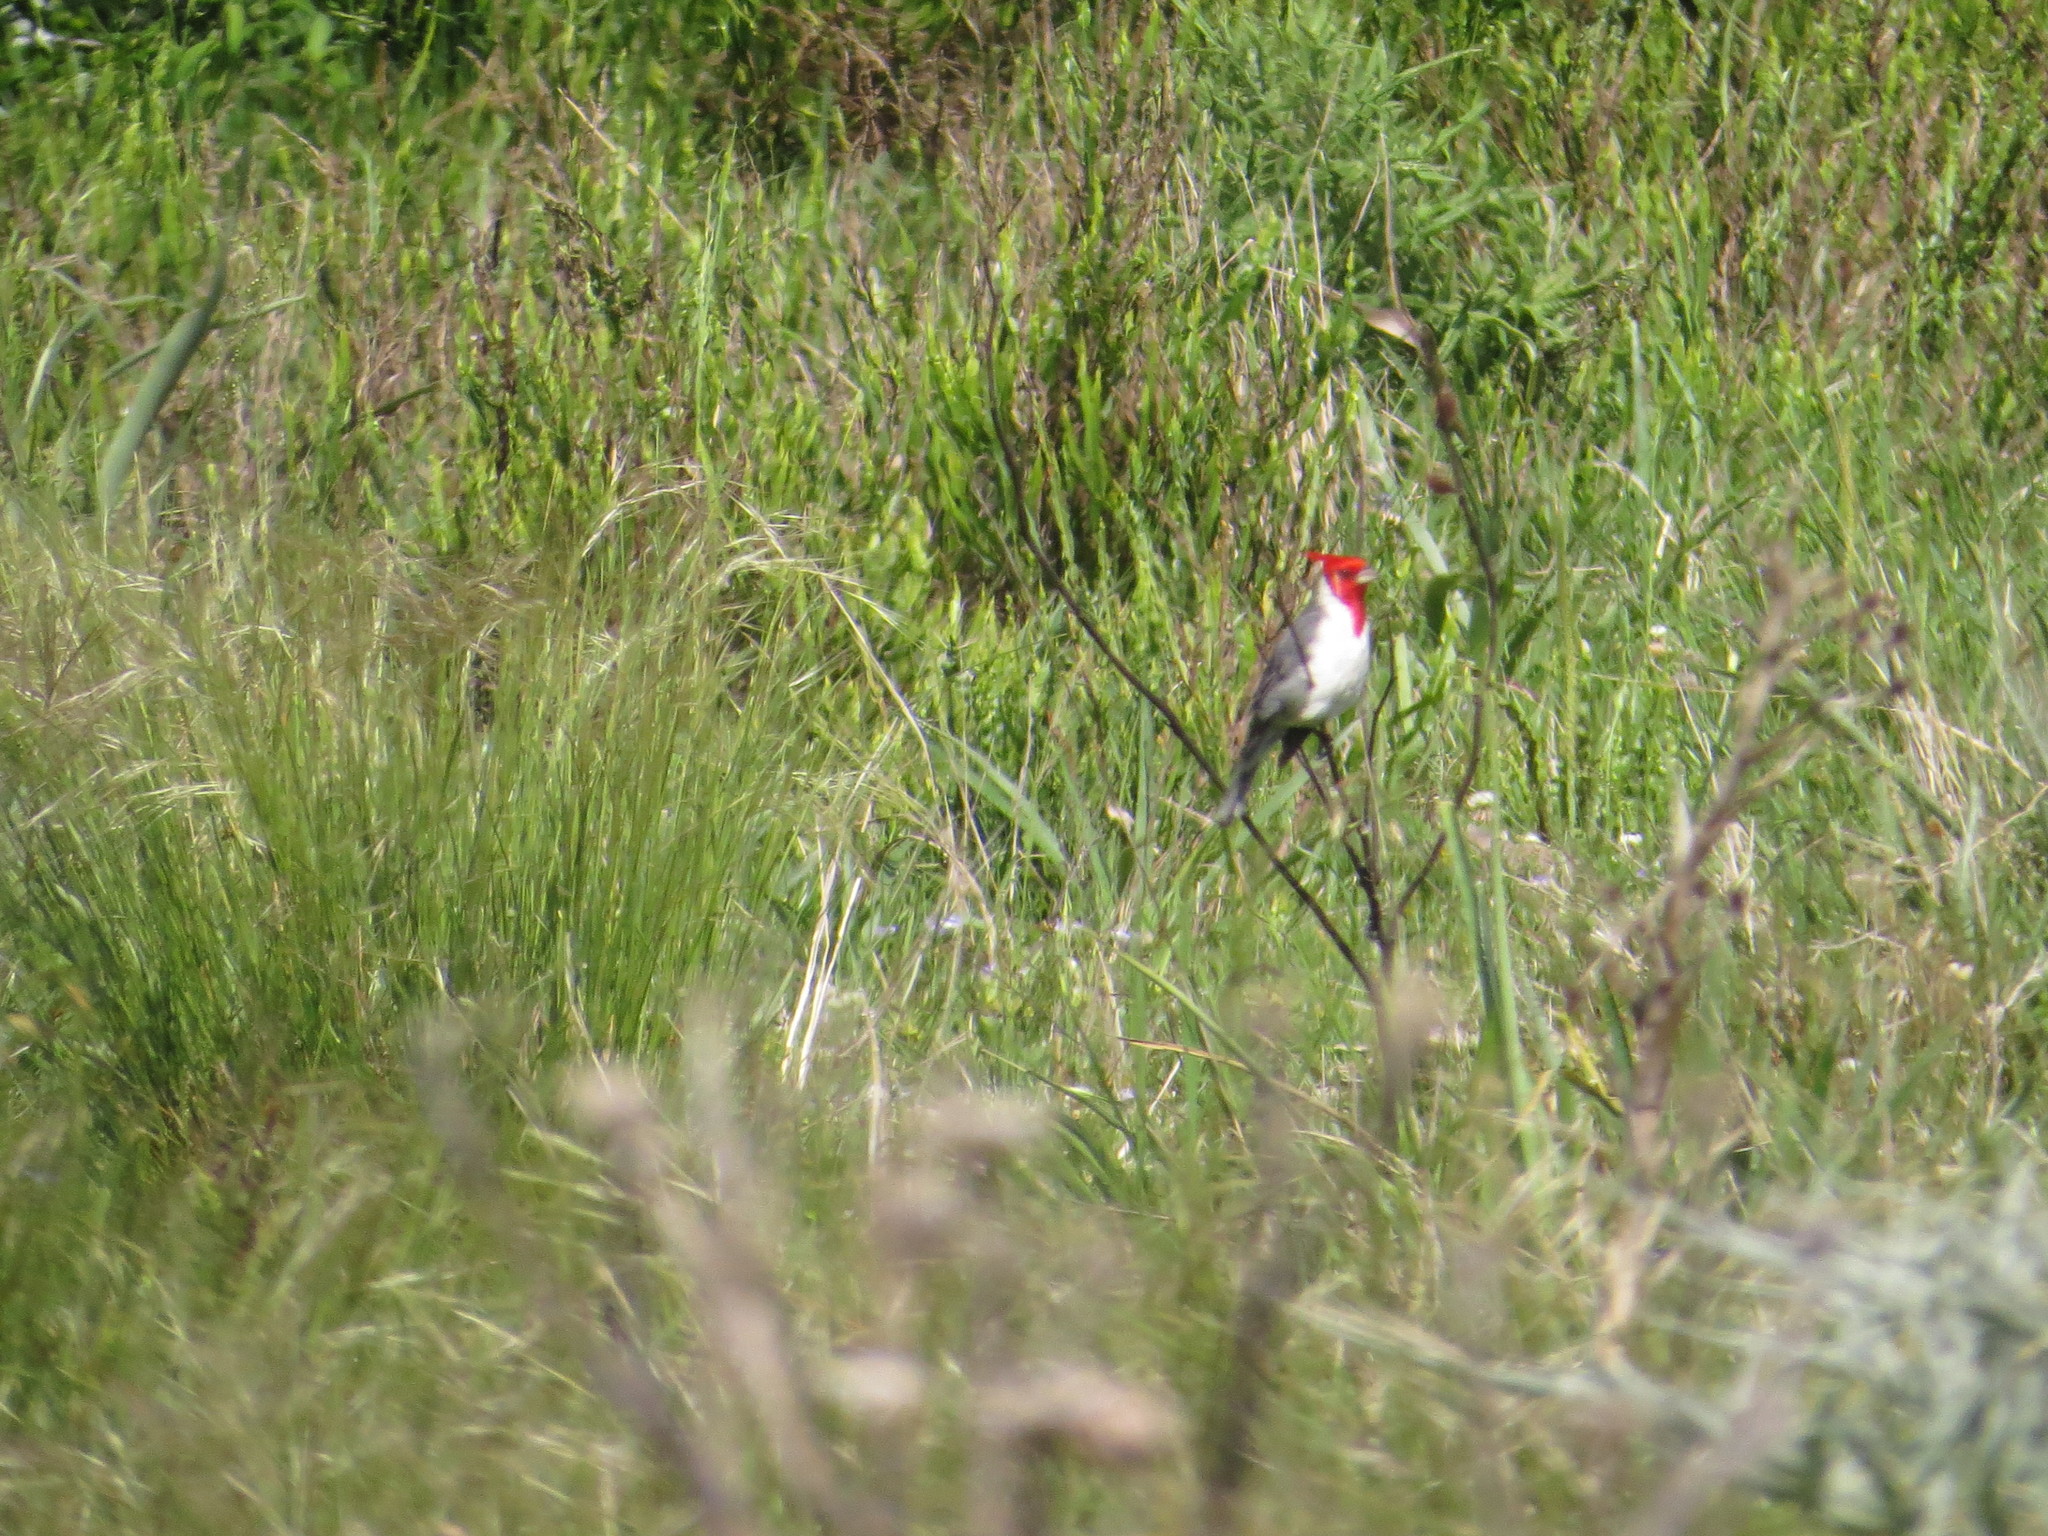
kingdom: Animalia
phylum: Chordata
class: Aves
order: Passeriformes
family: Thraupidae
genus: Paroaria
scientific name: Paroaria coronata
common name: Red-crested cardinal
